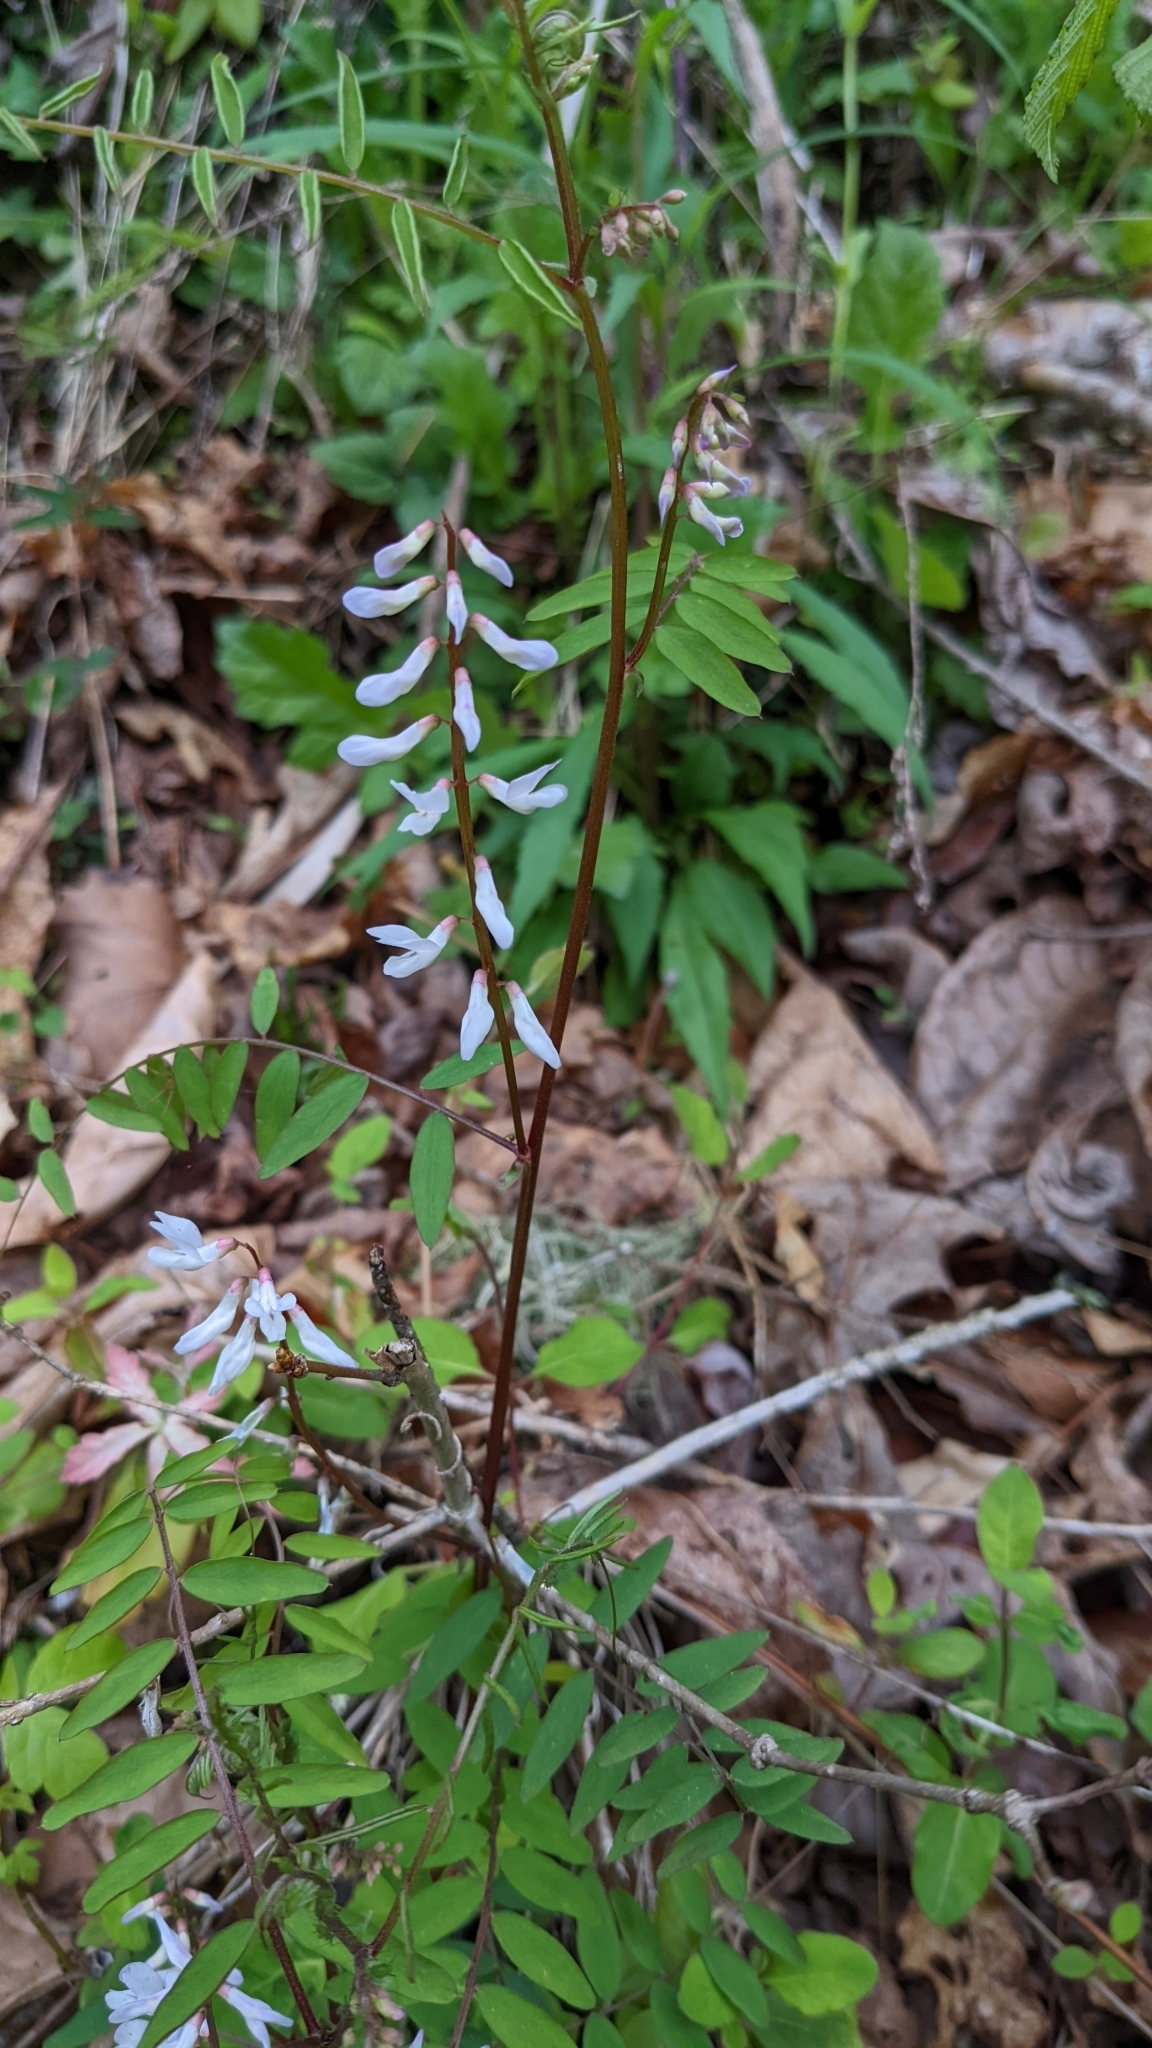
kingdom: Plantae
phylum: Tracheophyta
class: Magnoliopsida
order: Fabales
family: Fabaceae
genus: Vicia
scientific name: Vicia caroliniana
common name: Carolina vetch
